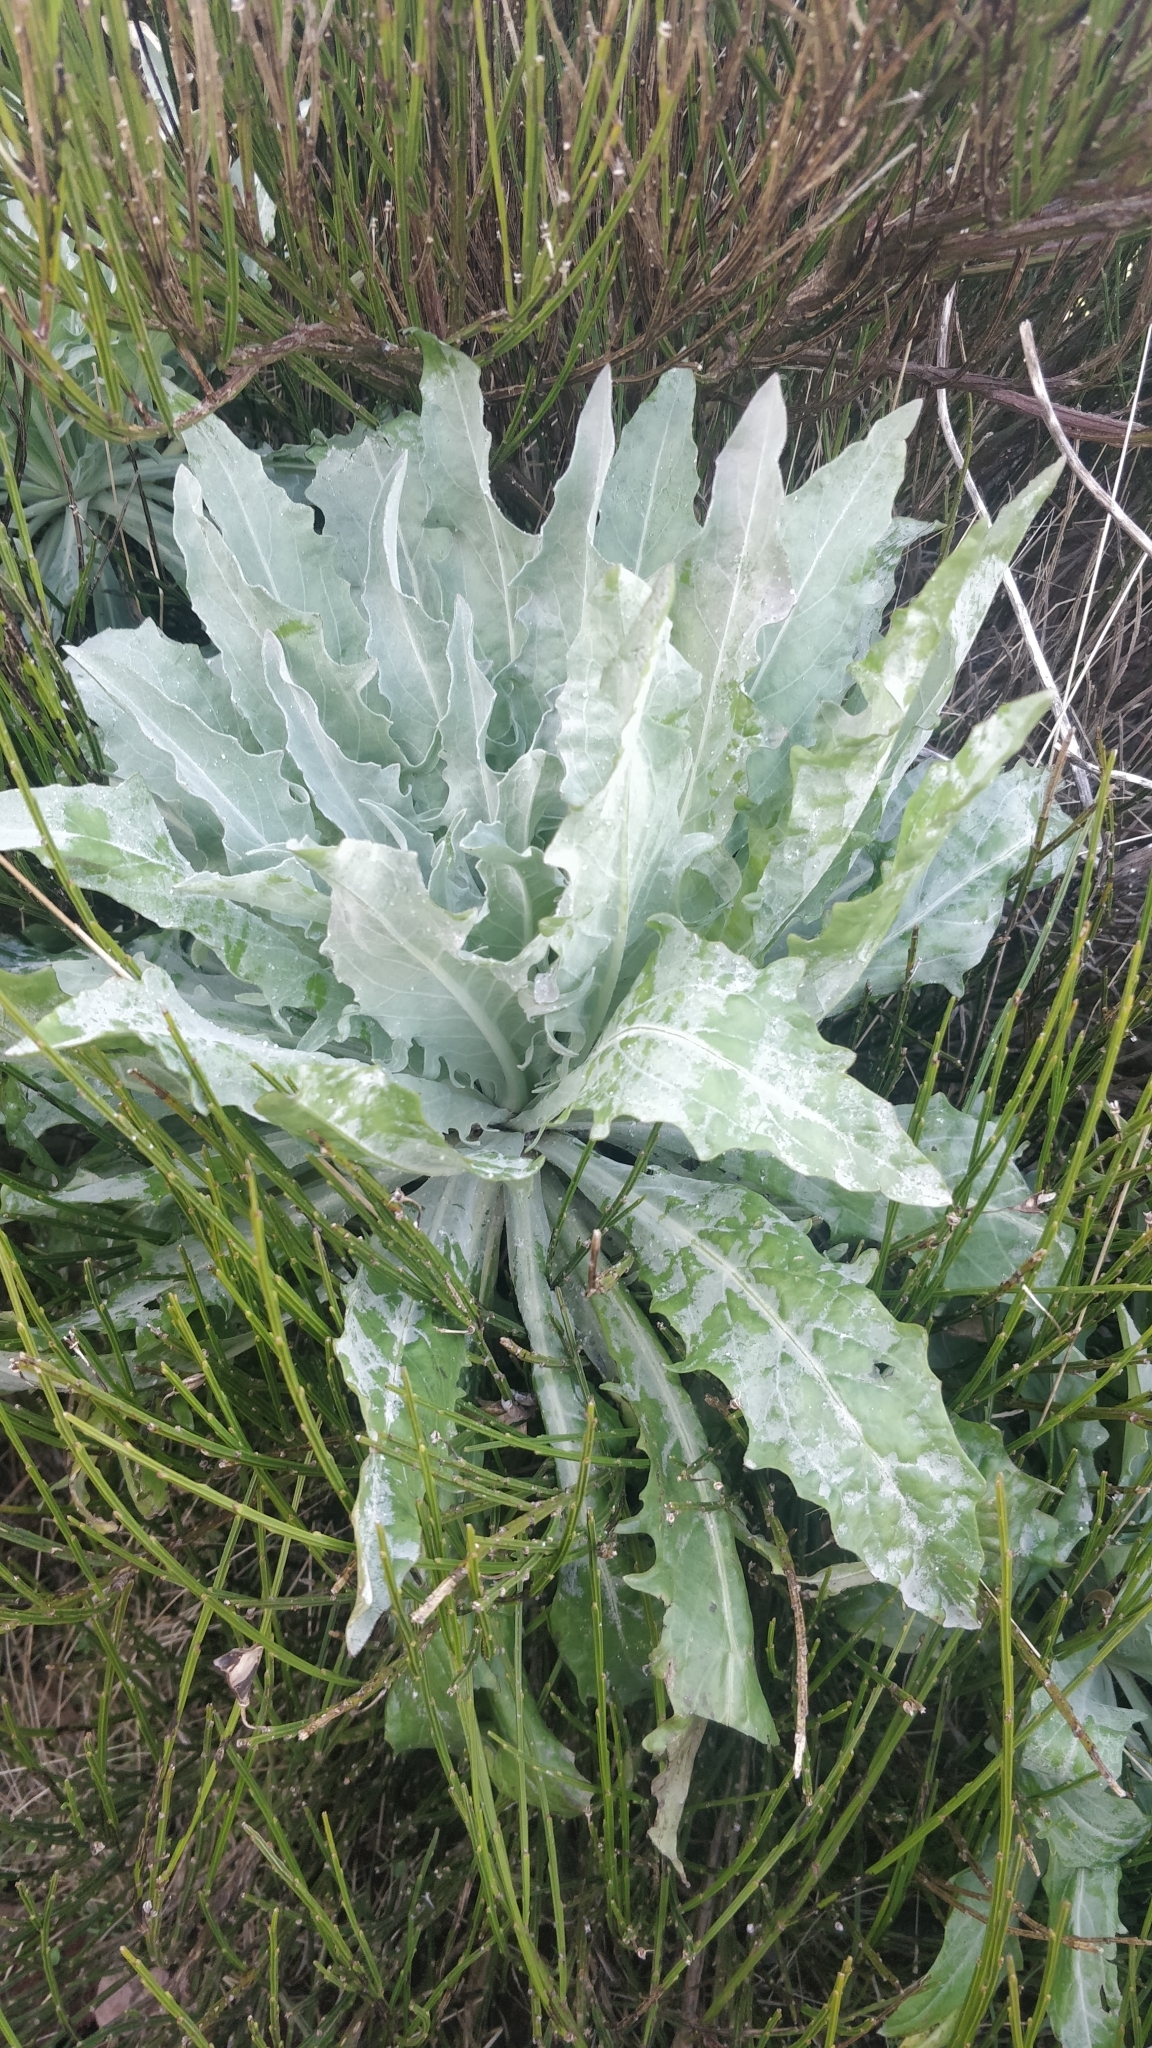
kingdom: Plantae
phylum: Tracheophyta
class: Magnoliopsida
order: Asterales
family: Asteraceae
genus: Andryala
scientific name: Andryala glandulosa
